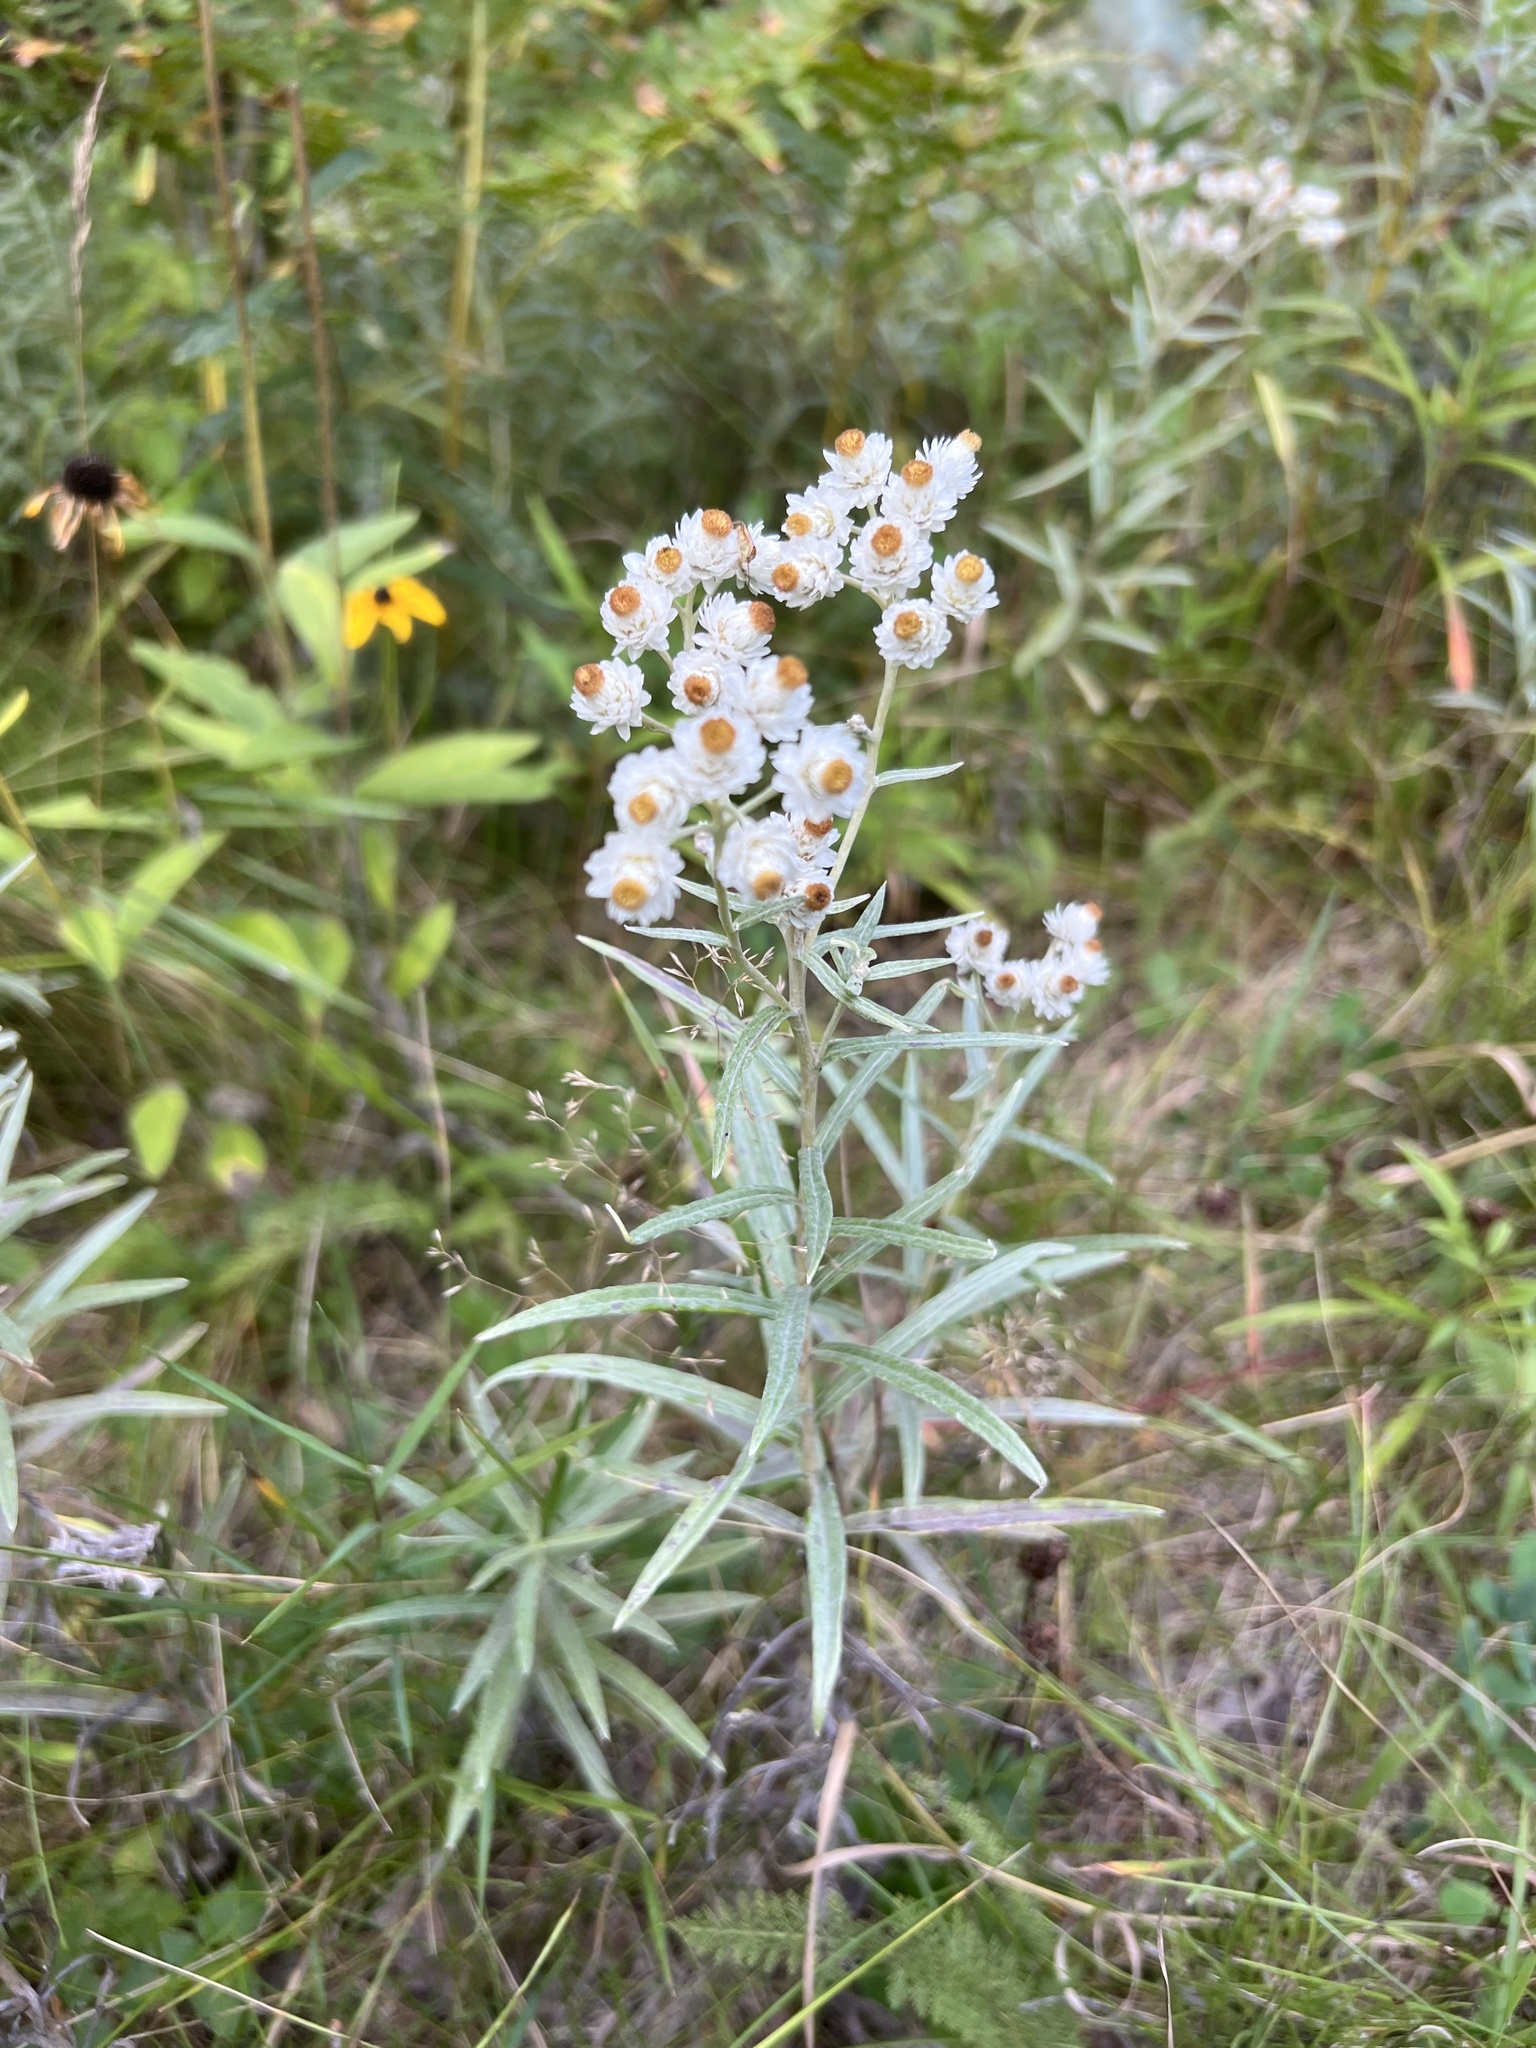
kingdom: Plantae
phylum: Tracheophyta
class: Magnoliopsida
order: Asterales
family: Asteraceae
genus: Anaphalis
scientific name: Anaphalis margaritacea
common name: Pearly everlasting
